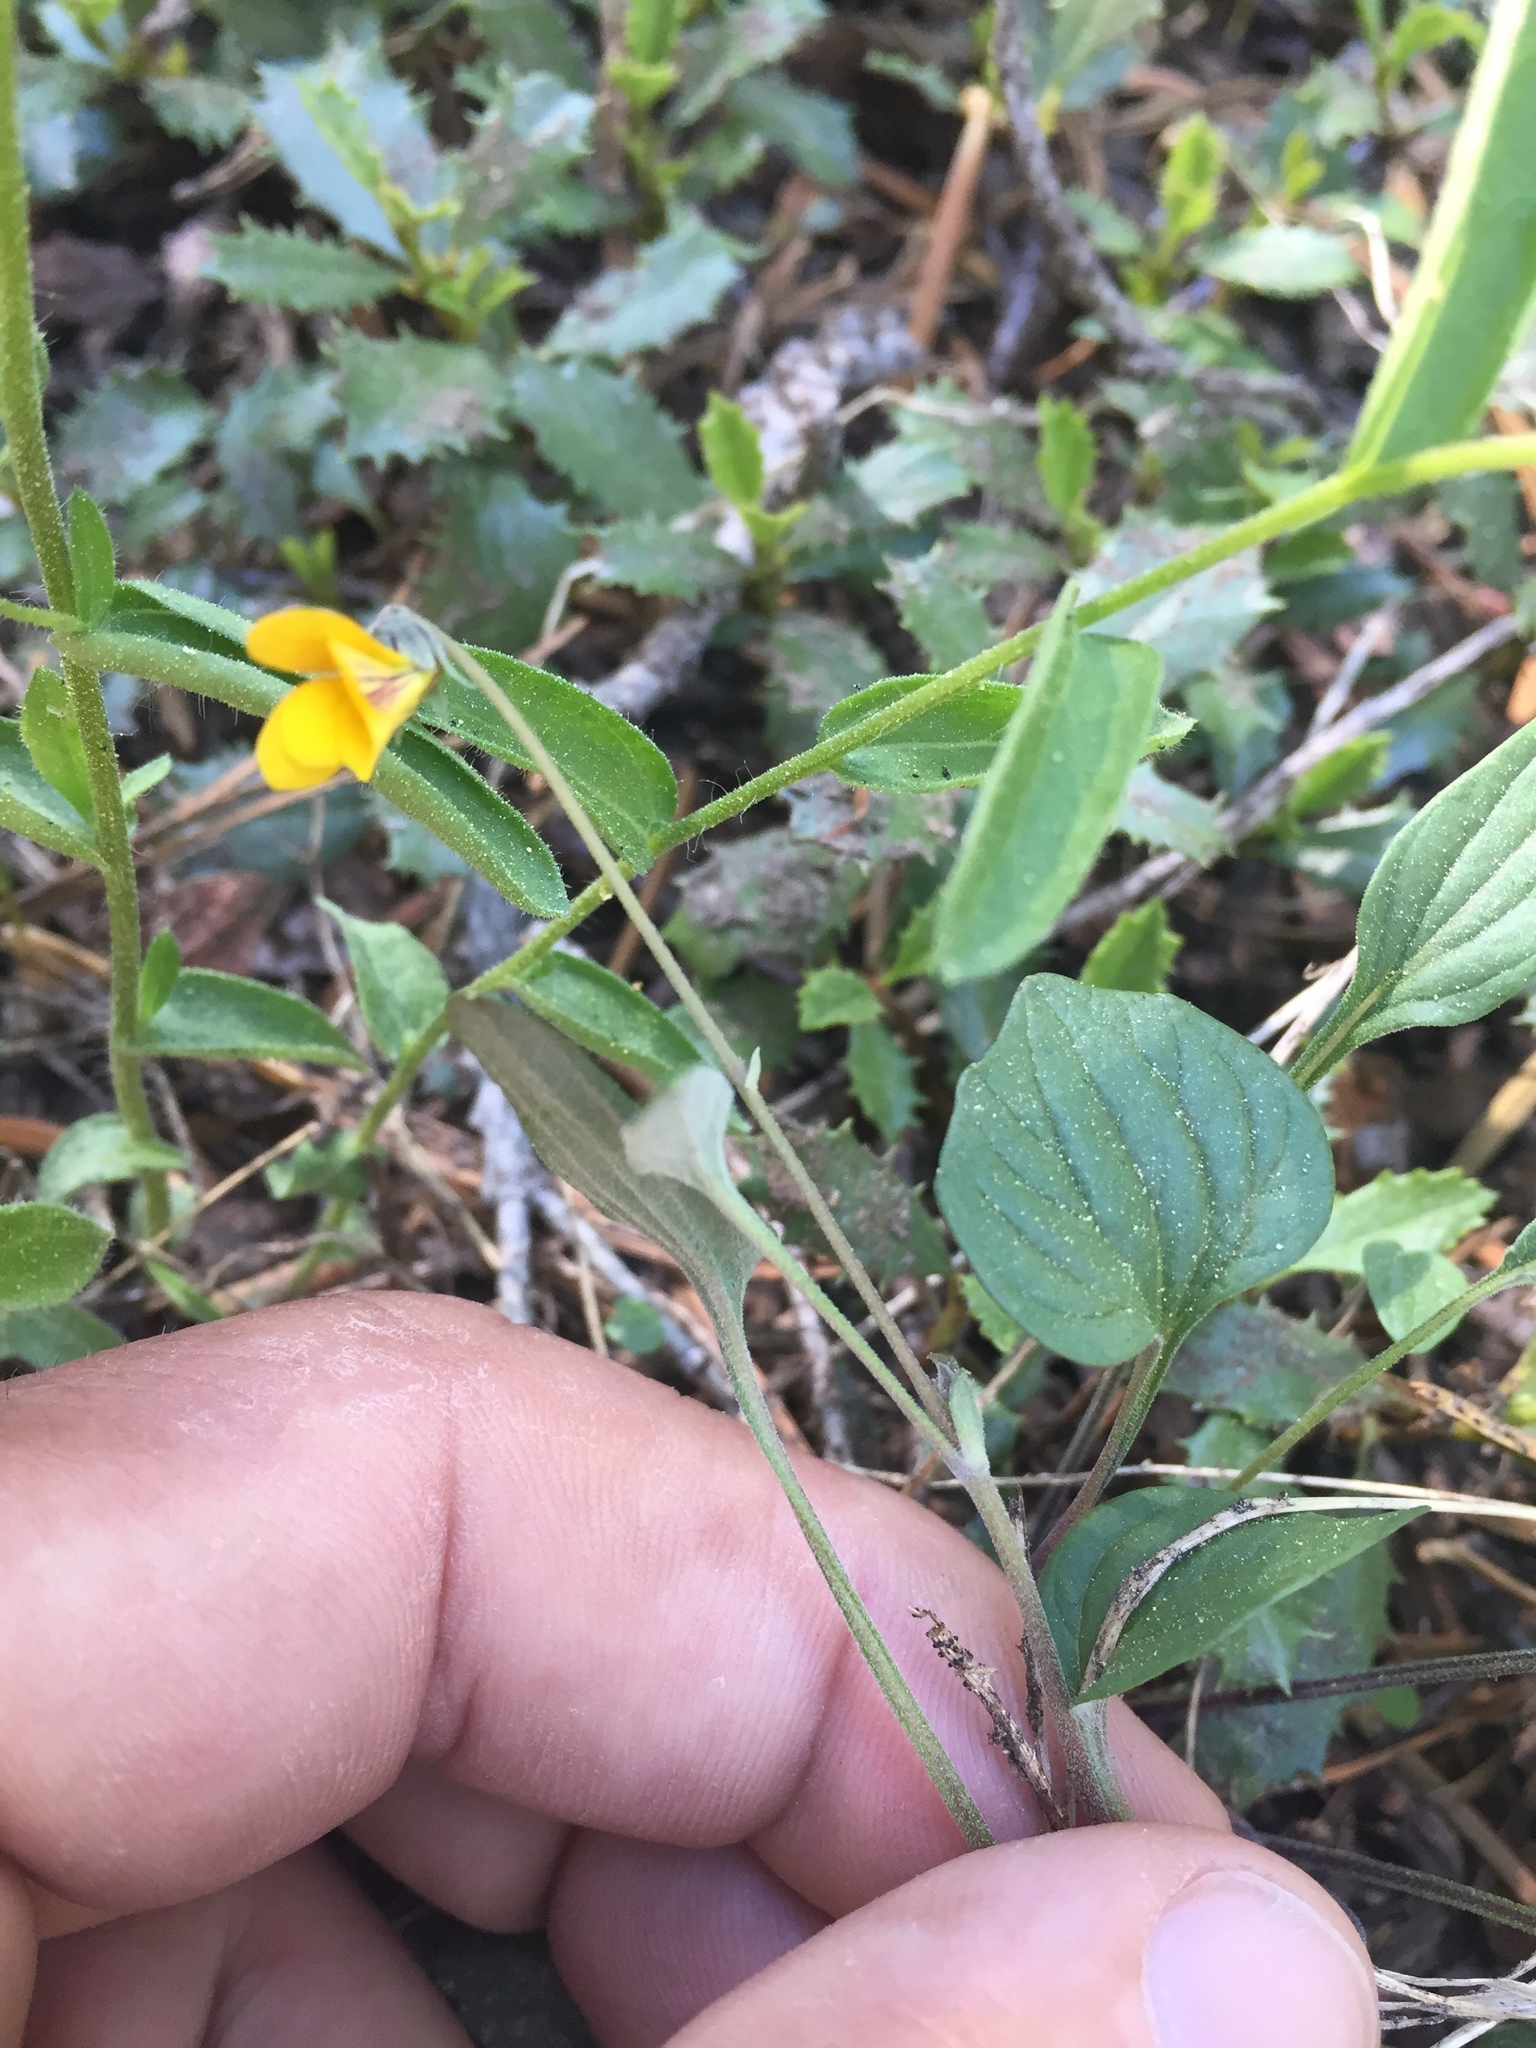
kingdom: Plantae
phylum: Tracheophyta
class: Magnoliopsida
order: Malpighiales
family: Violaceae
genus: Viola
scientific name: Viola purpurea
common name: Pine violet
